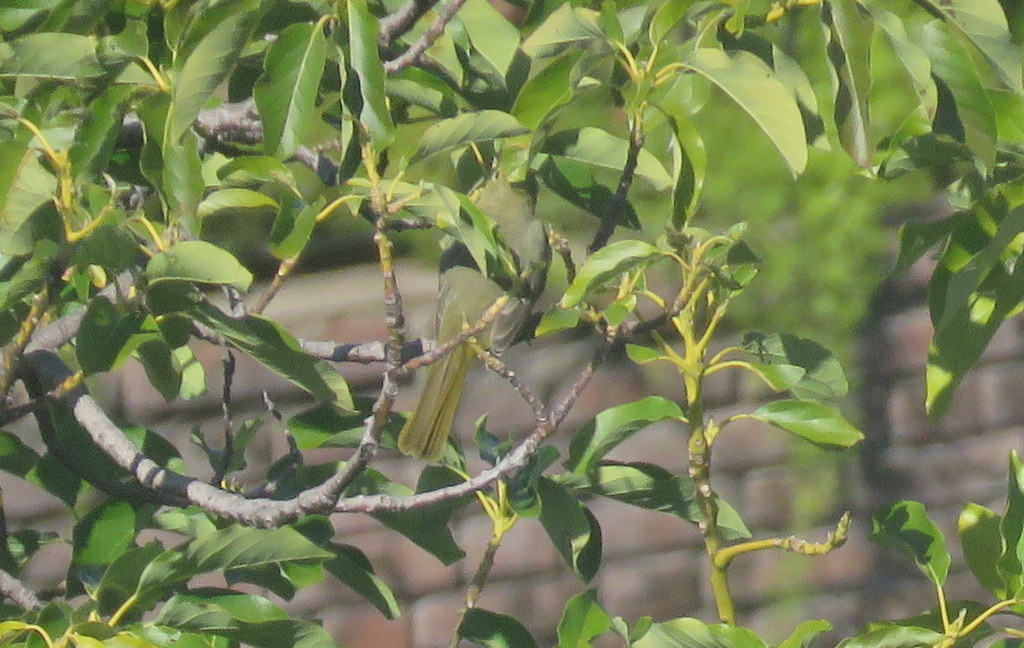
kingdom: Animalia
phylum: Chordata
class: Aves
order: Passeriformes
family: Cardinalidae
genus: Piranga
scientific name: Piranga flava
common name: Red tanager
